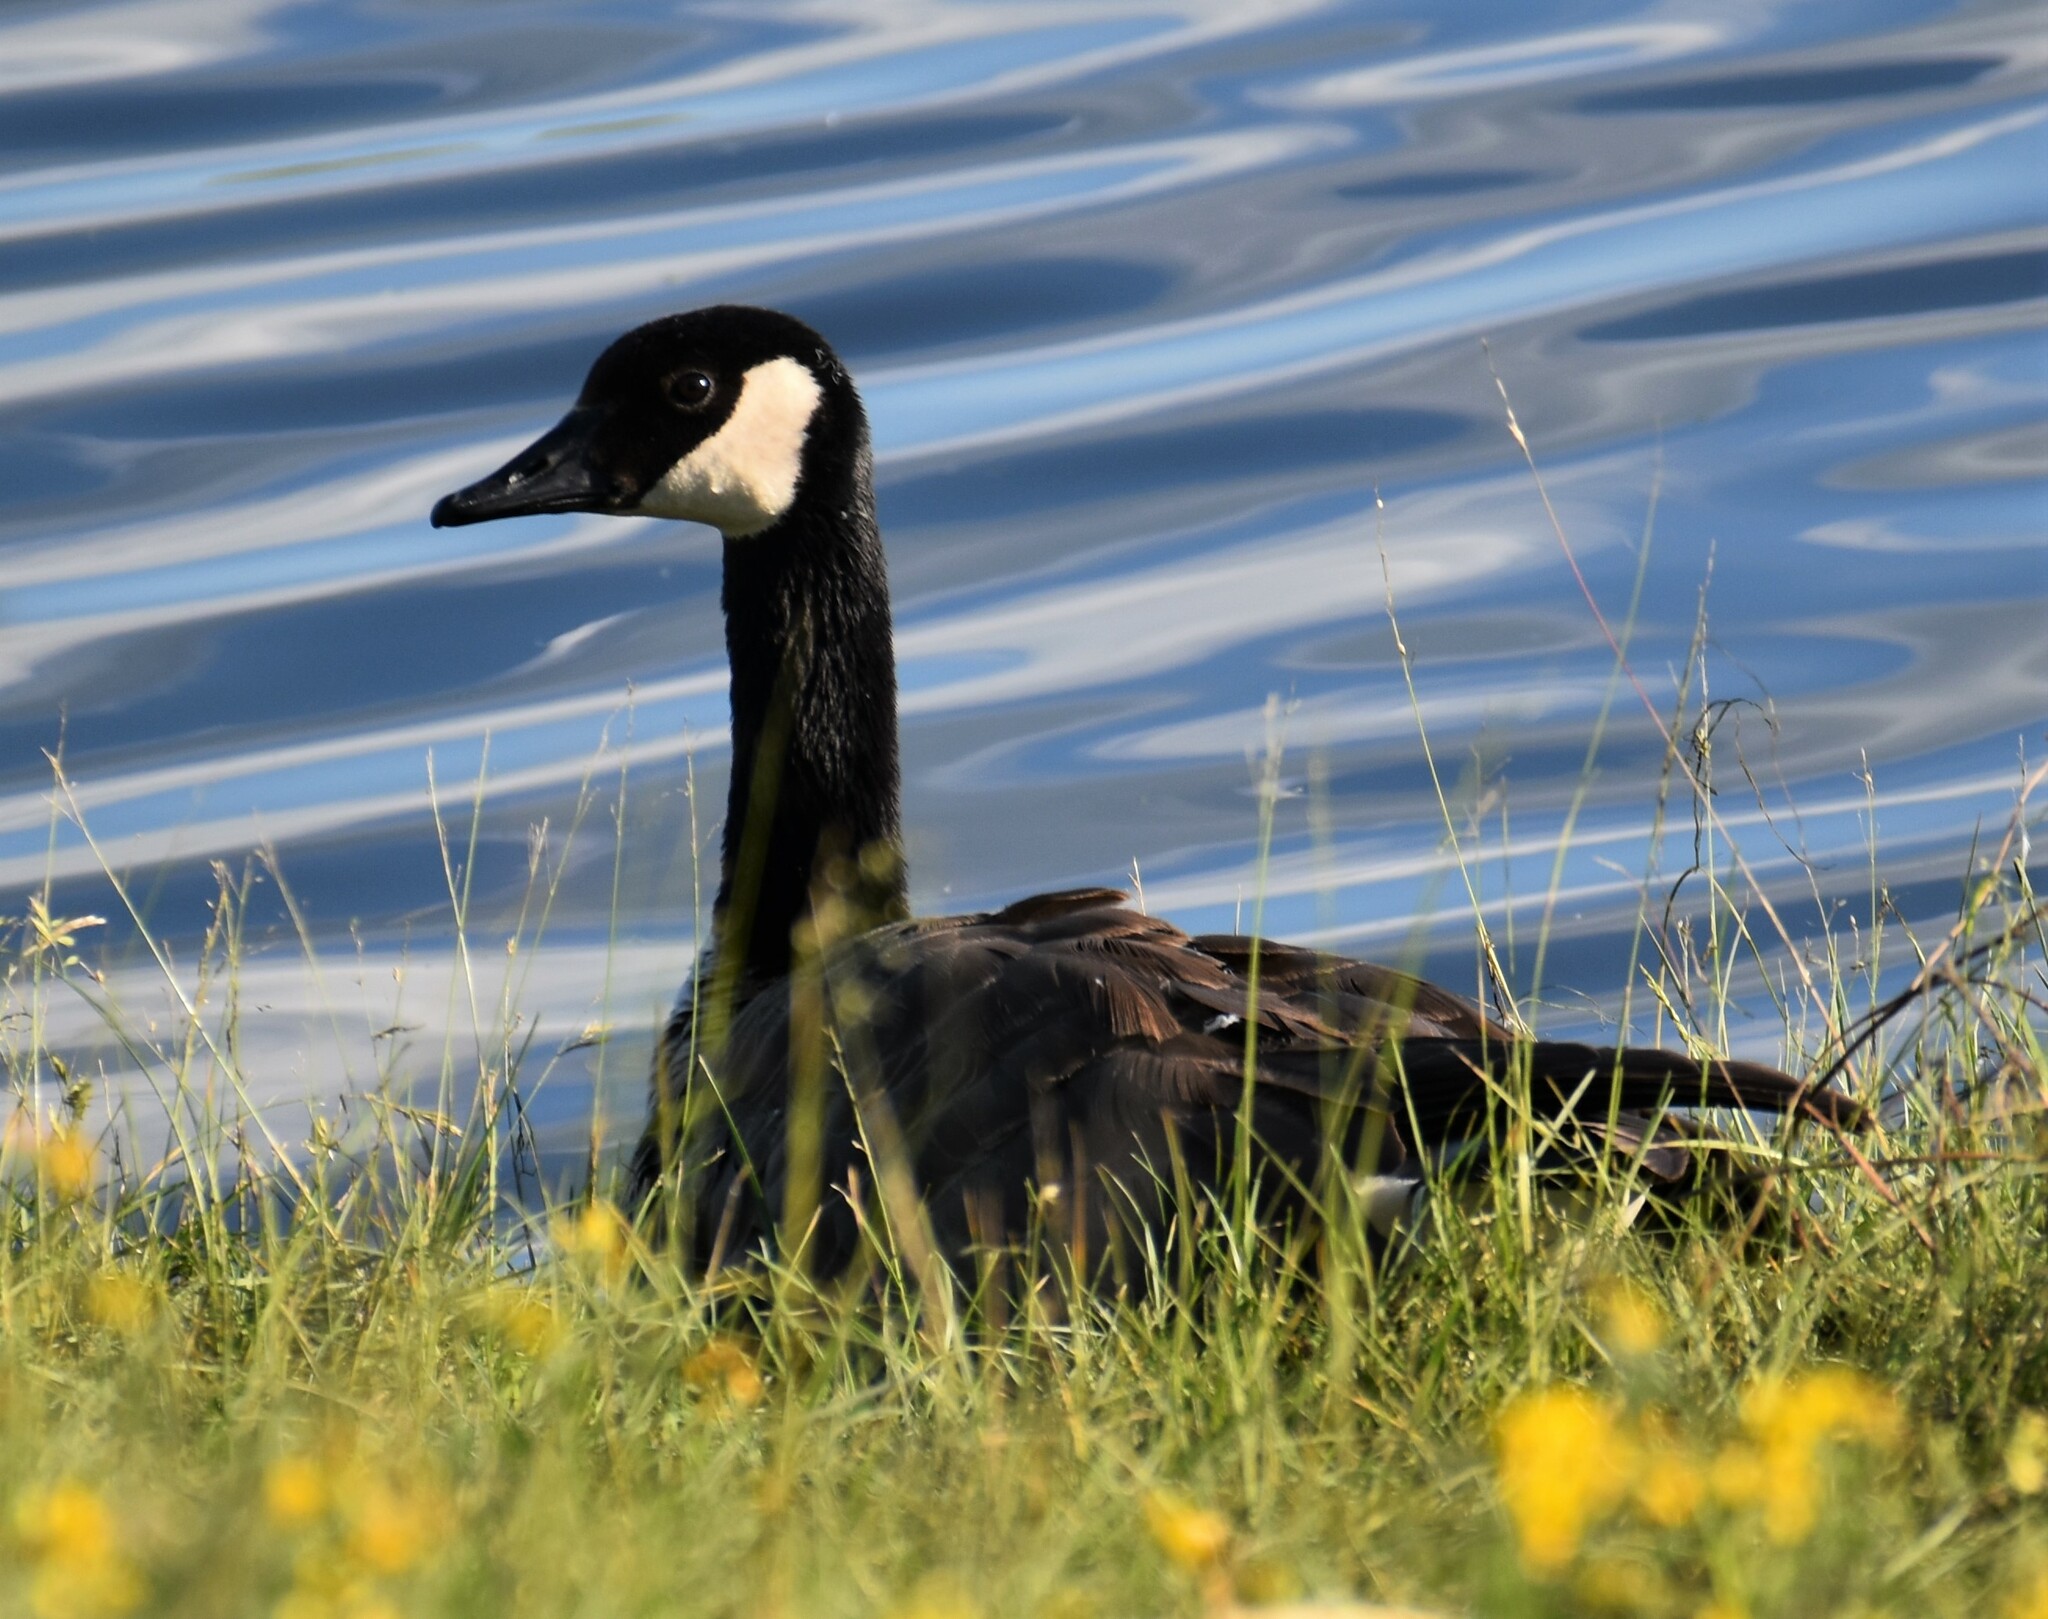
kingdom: Animalia
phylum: Chordata
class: Aves
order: Anseriformes
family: Anatidae
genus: Branta
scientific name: Branta canadensis
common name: Canada goose
